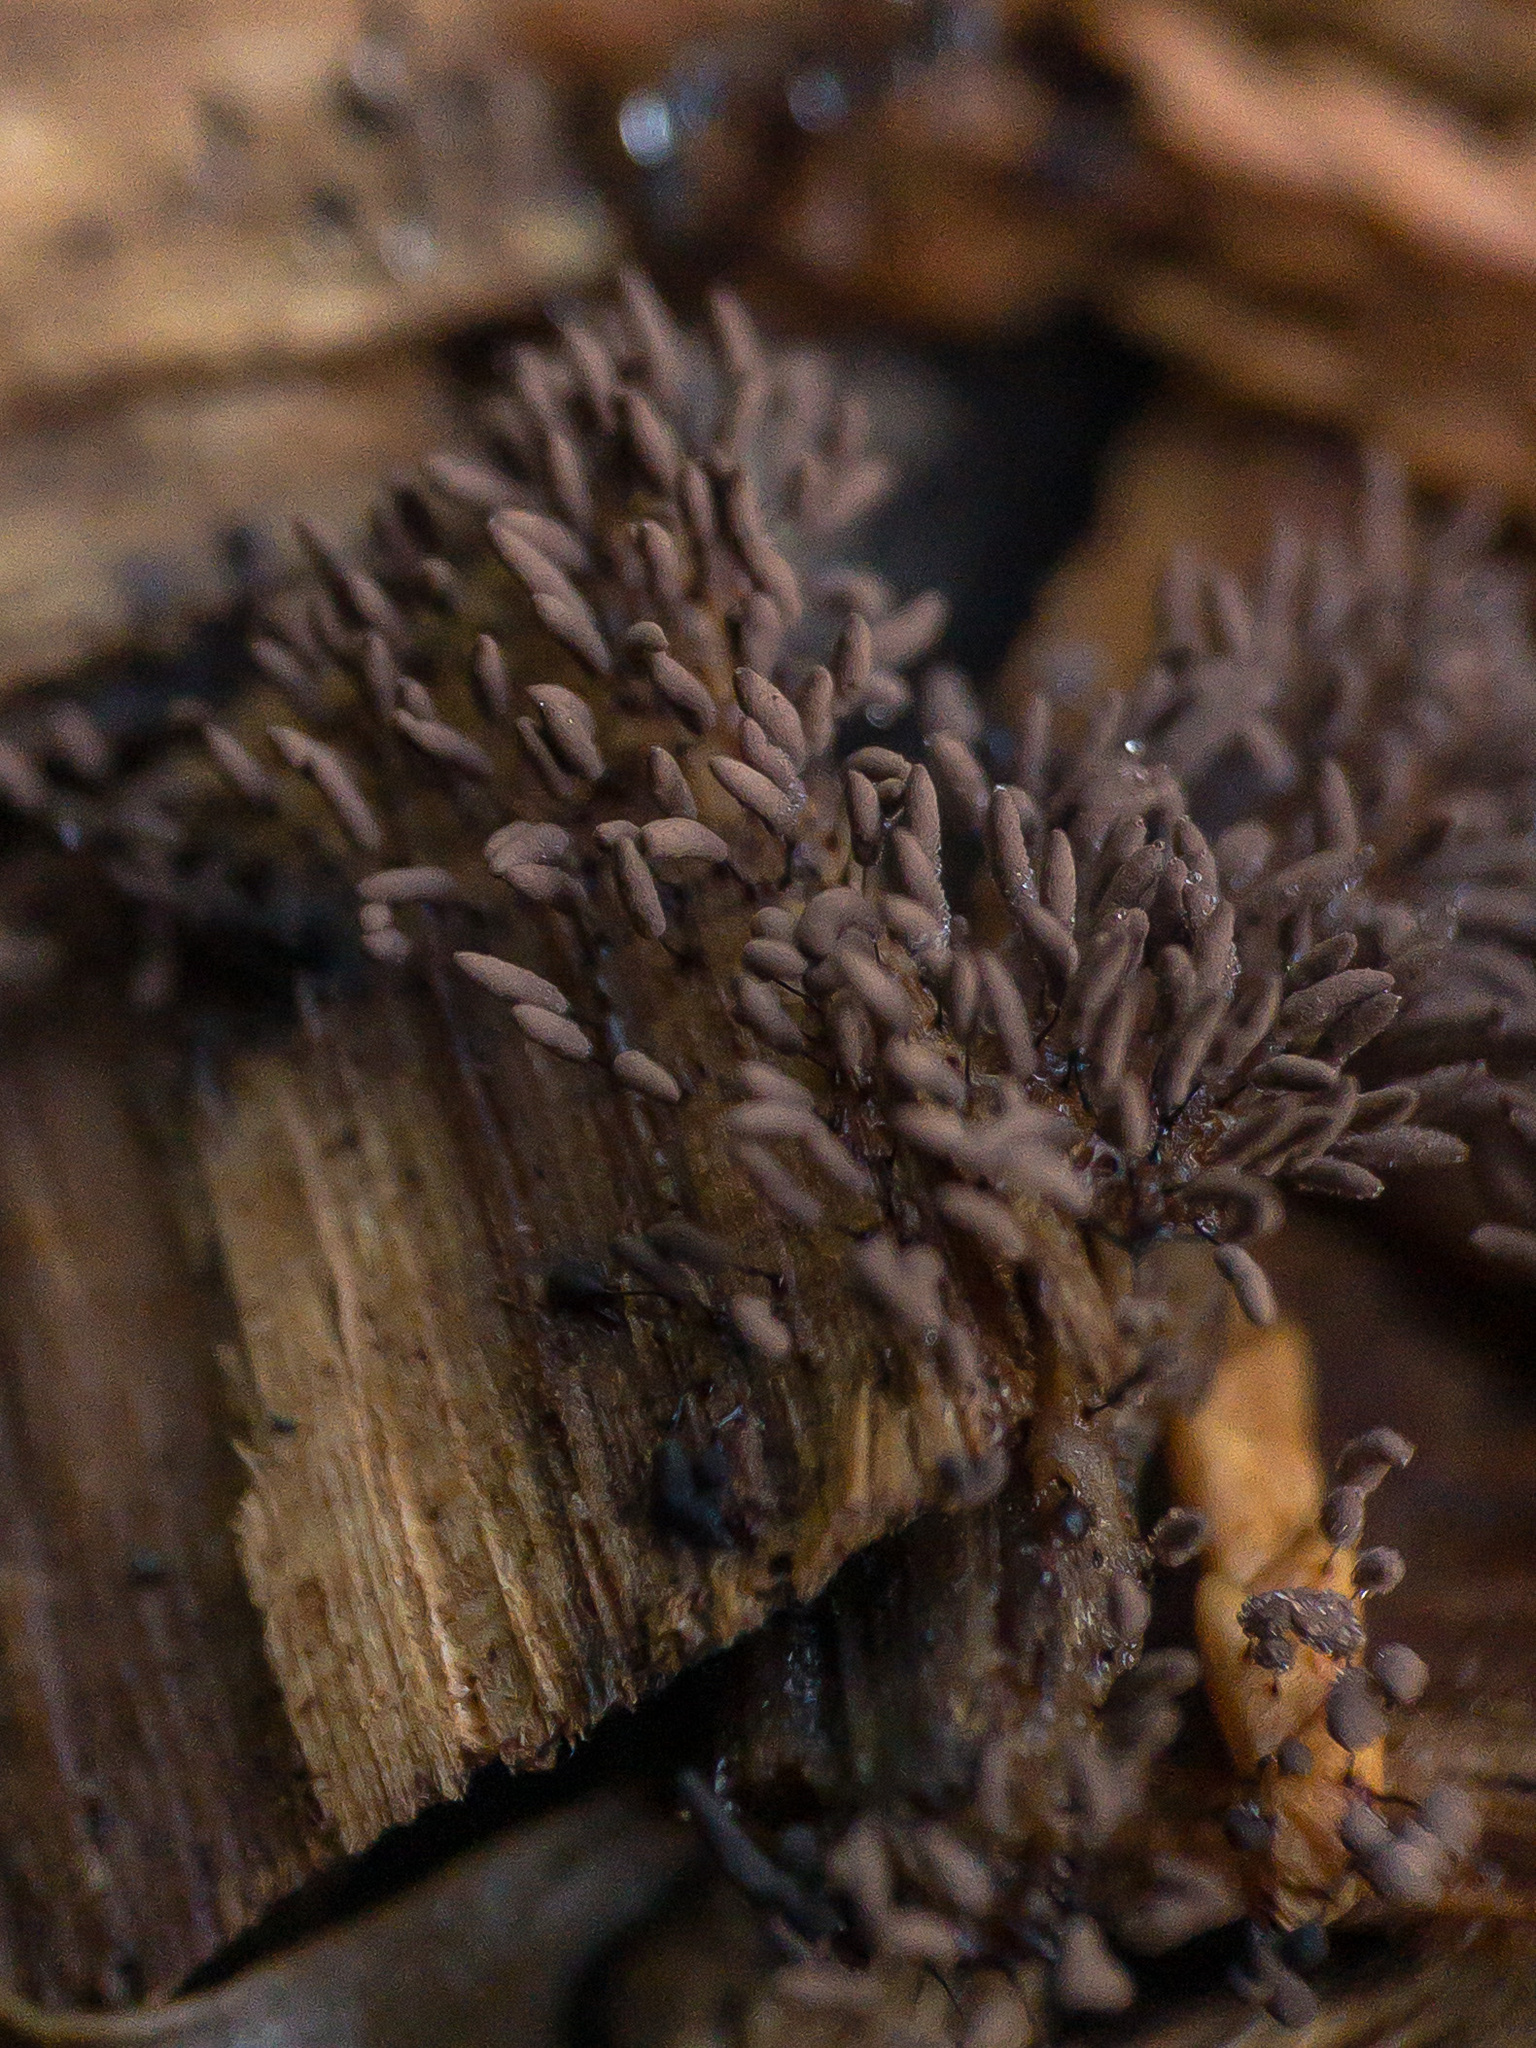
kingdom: Protozoa
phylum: Mycetozoa
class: Myxomycetes
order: Stemonitidales
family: Stemonitidaceae
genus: Stemonitis
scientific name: Stemonitis splendens
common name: Chocolate tube slime
